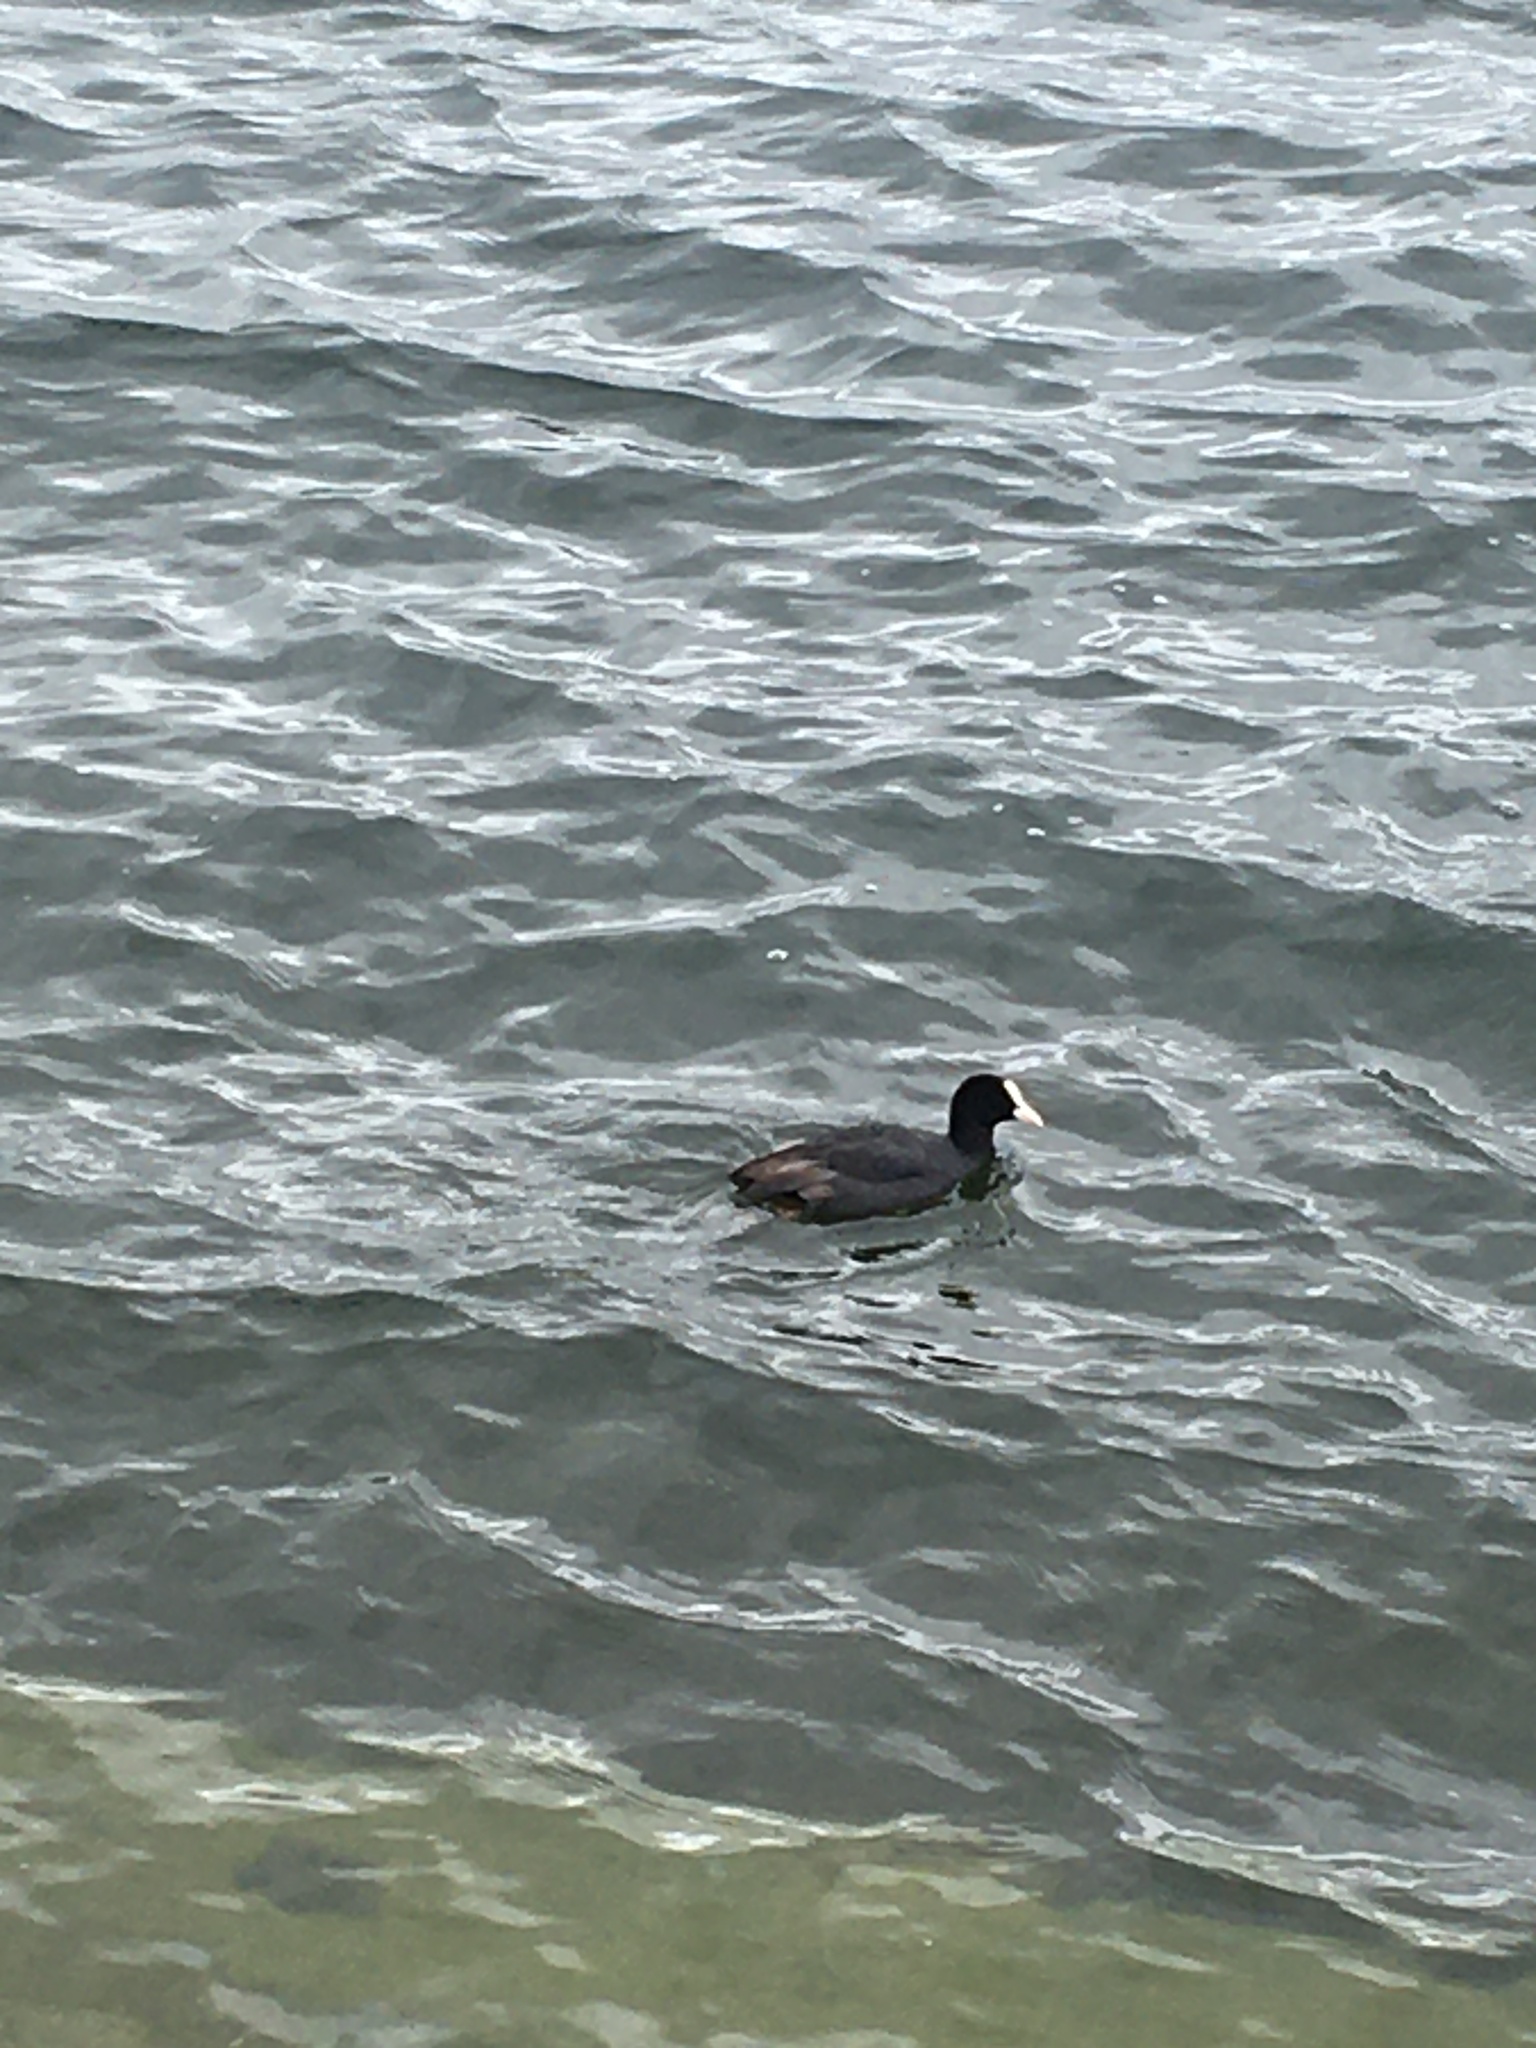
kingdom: Animalia
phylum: Chordata
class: Aves
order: Gruiformes
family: Rallidae
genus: Fulica
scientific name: Fulica atra
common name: Eurasian coot
